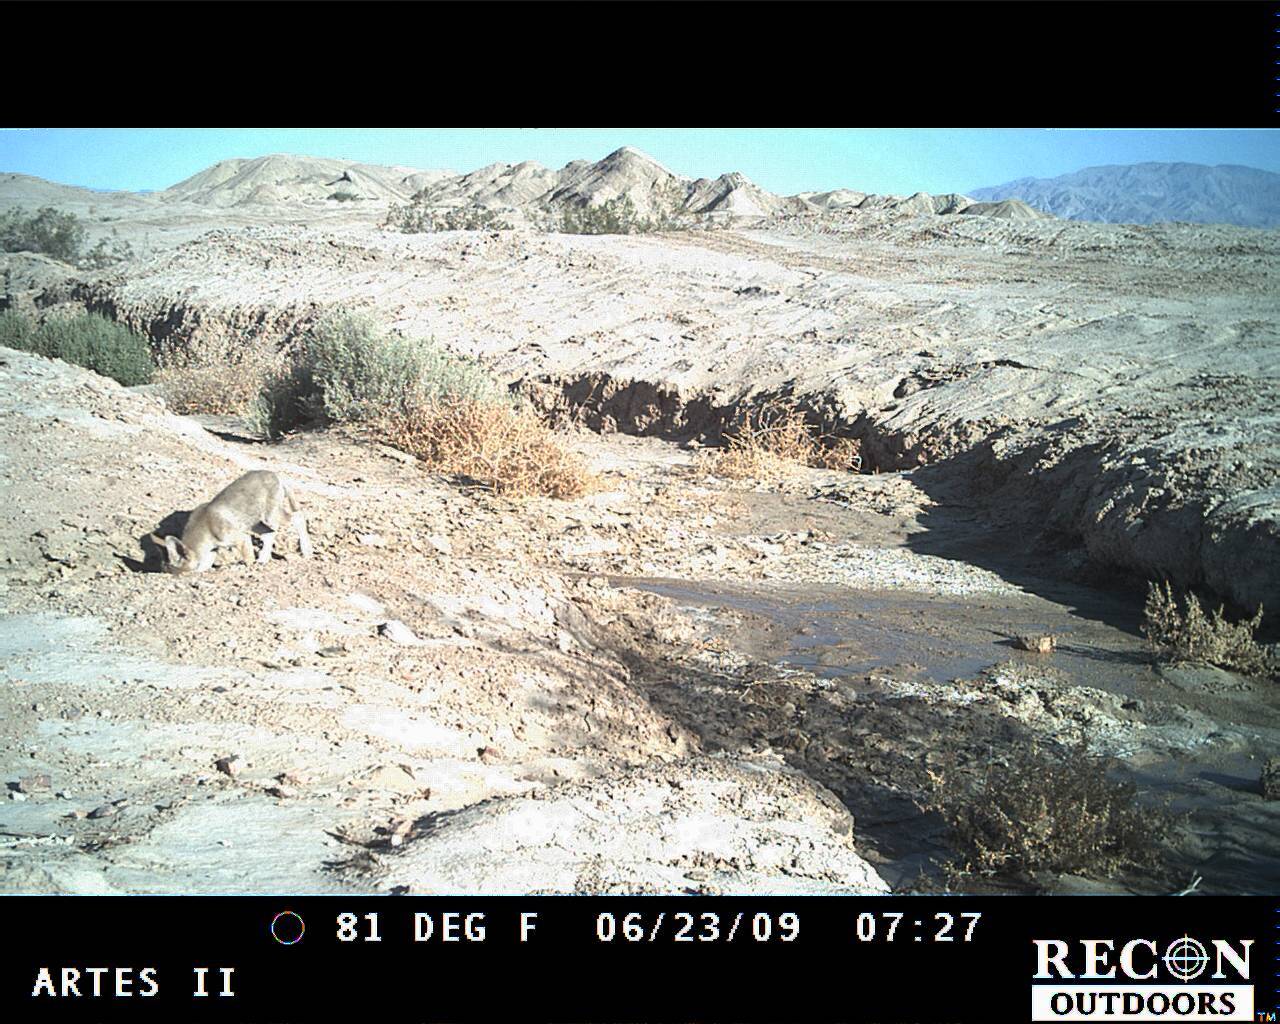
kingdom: Animalia
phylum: Chordata
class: Mammalia
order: Carnivora
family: Canidae
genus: Canis
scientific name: Canis latrans
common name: Coyote
